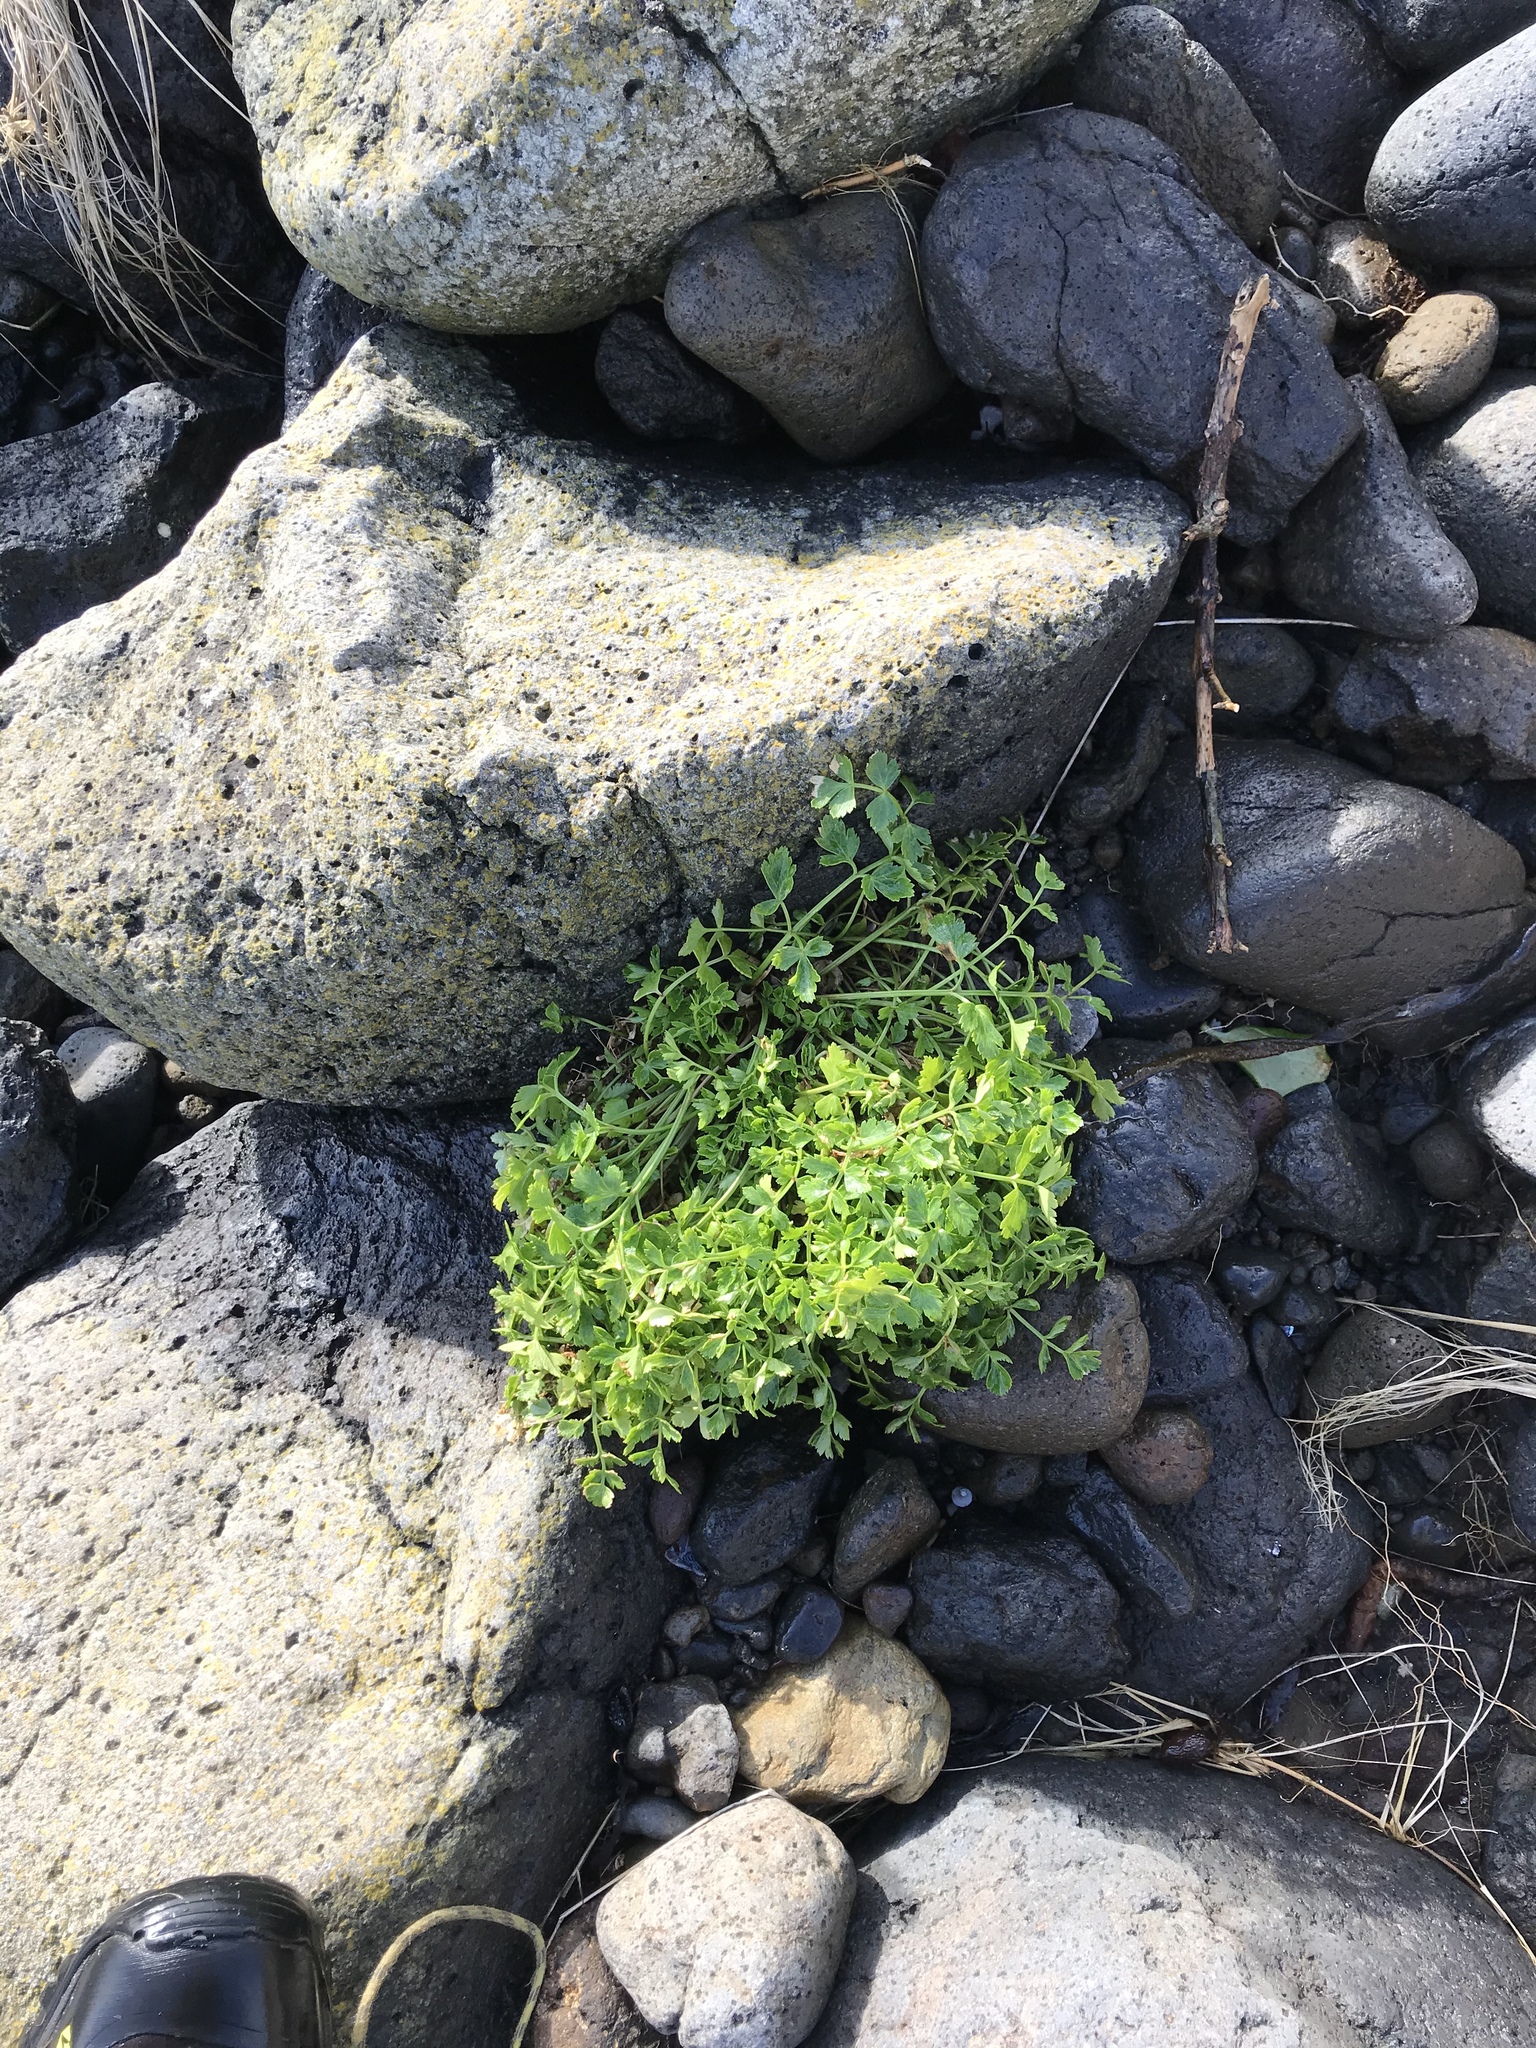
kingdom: Plantae
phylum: Tracheophyta
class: Magnoliopsida
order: Apiales
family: Apiaceae
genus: Apium
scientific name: Apium prostratum
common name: Prostrate marshwort
